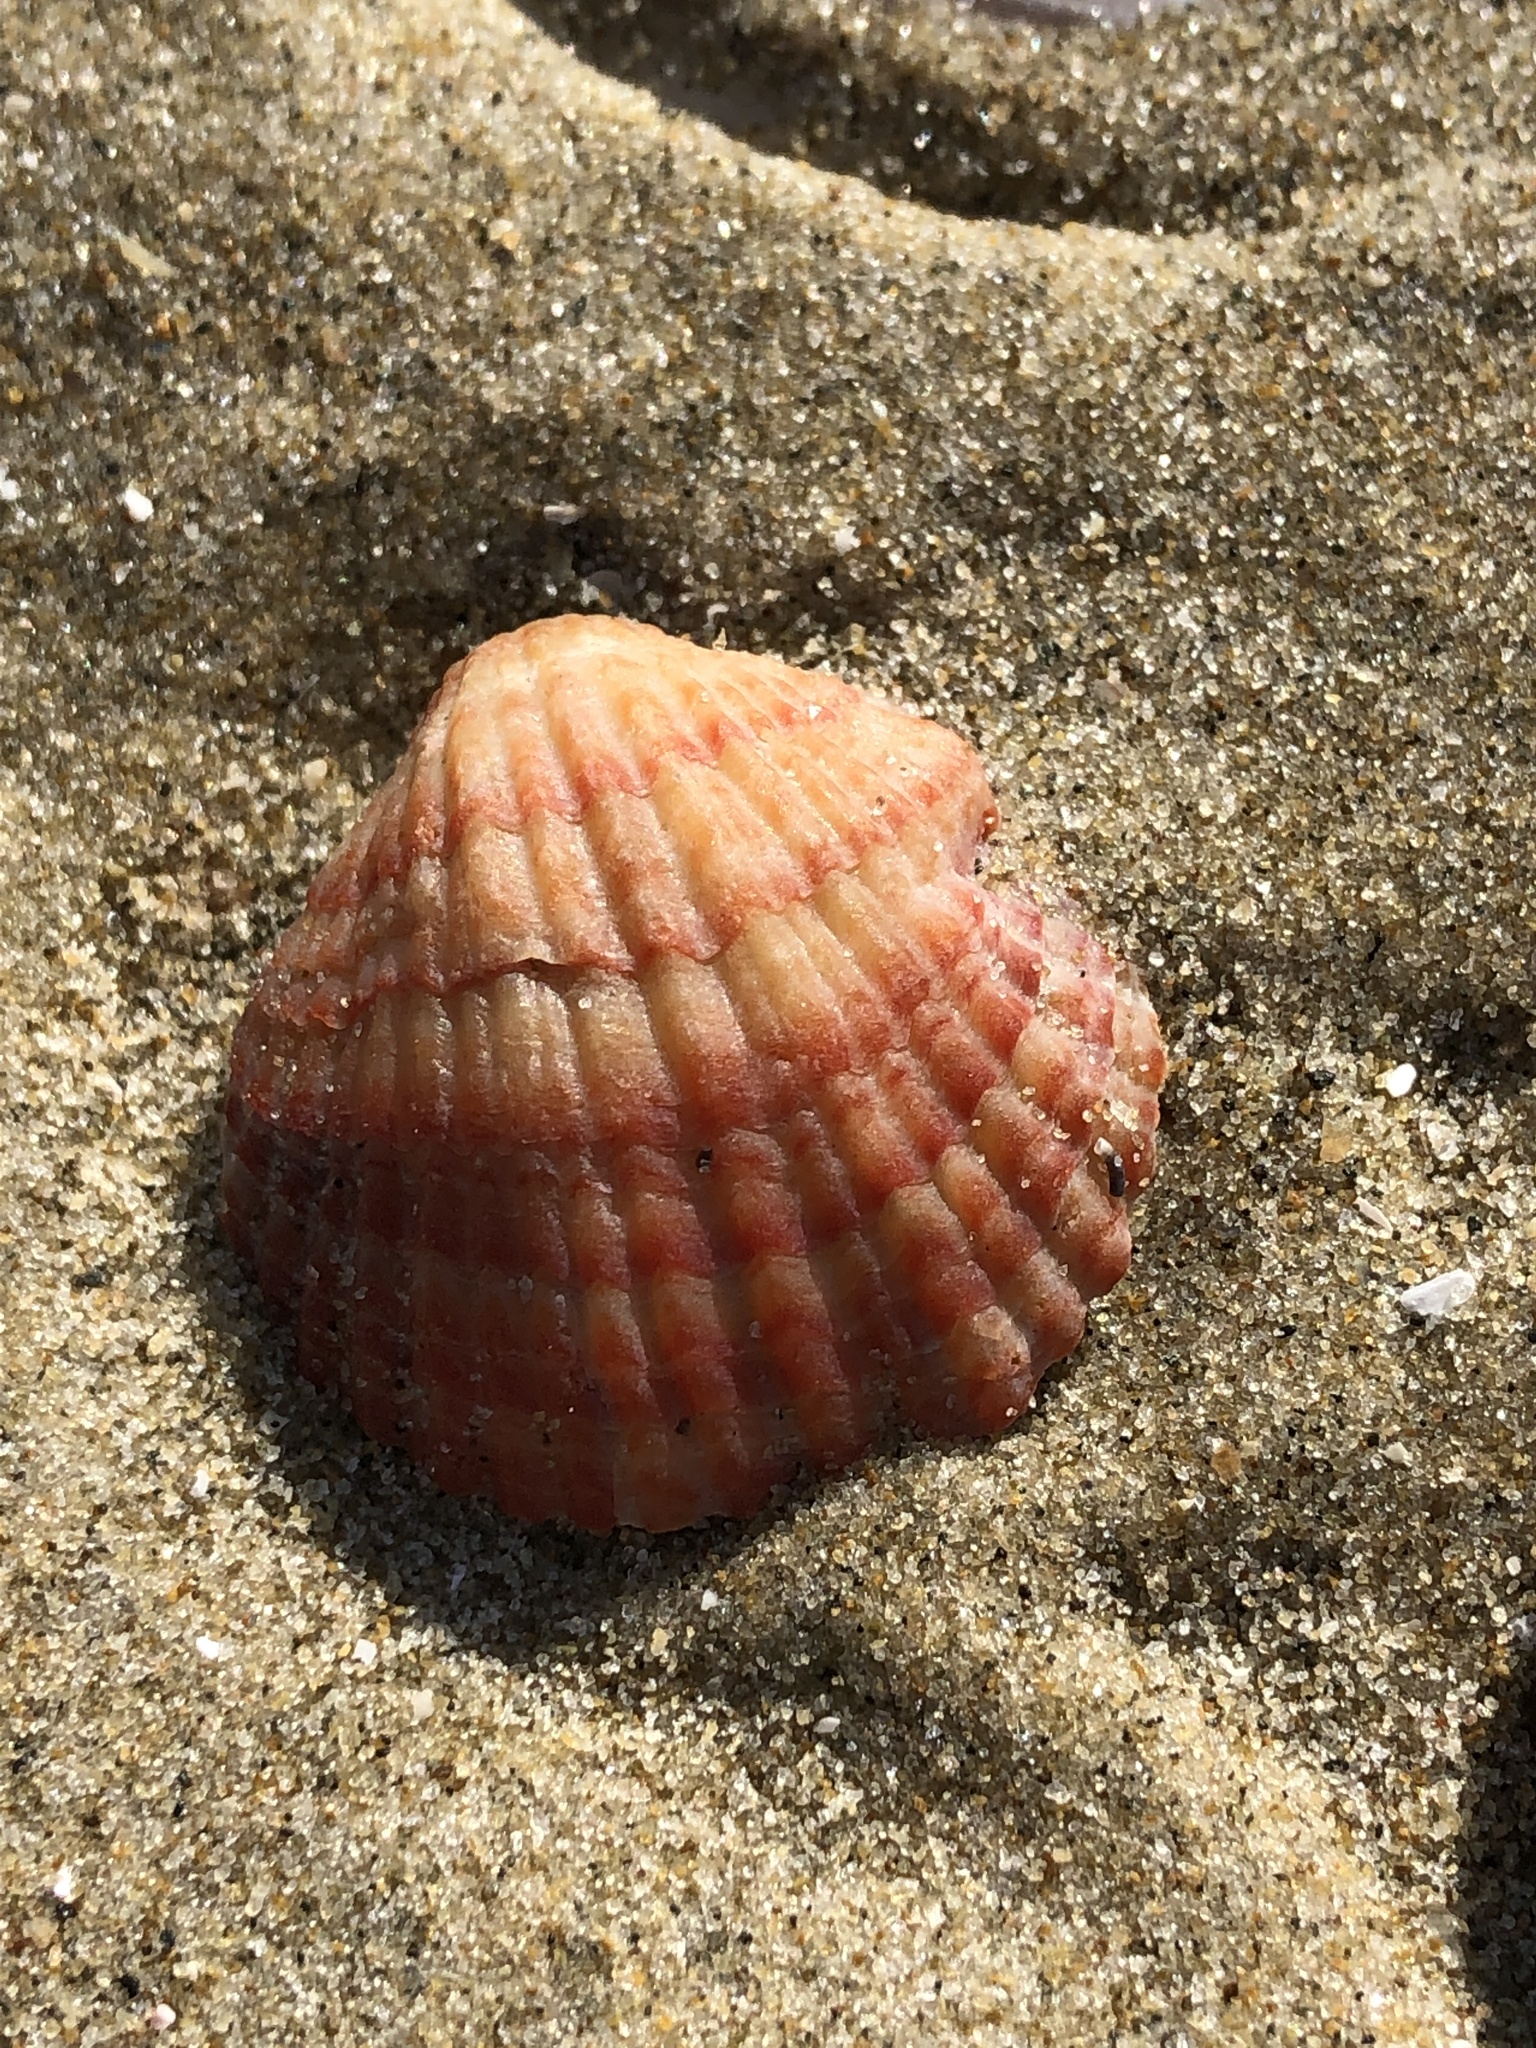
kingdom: Animalia
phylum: Brachiopoda
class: Rhynchonellata
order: Terebratulida
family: Terebrataliidae
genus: Coptothyris
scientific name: Coptothyris grayi
